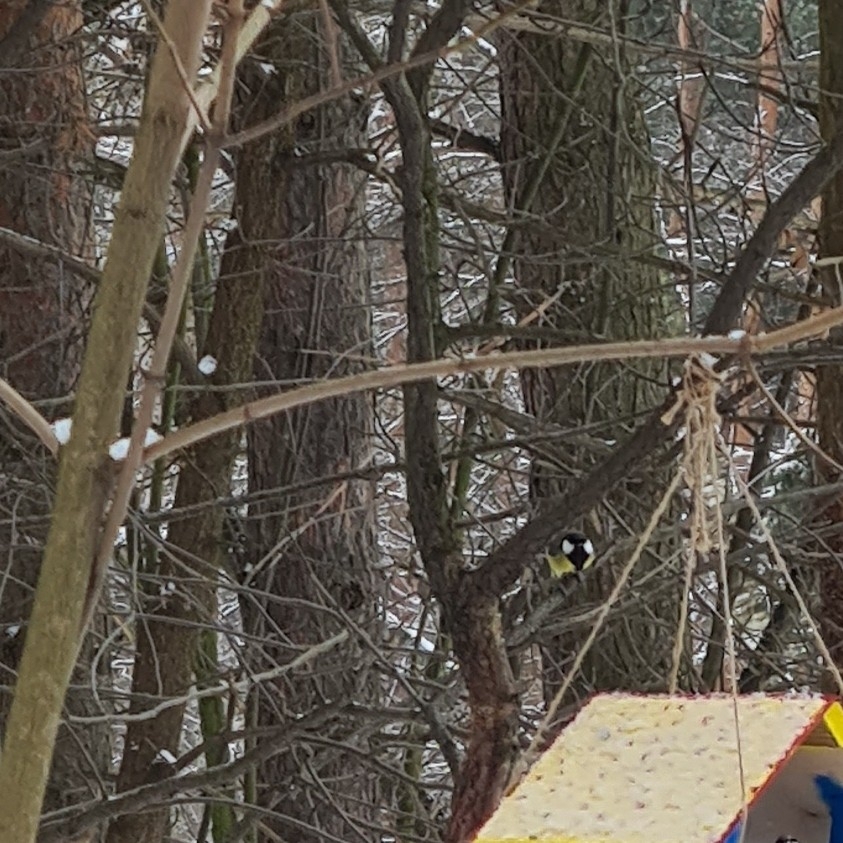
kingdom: Animalia
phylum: Chordata
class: Aves
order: Passeriformes
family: Paridae
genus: Parus
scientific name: Parus major
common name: Great tit
